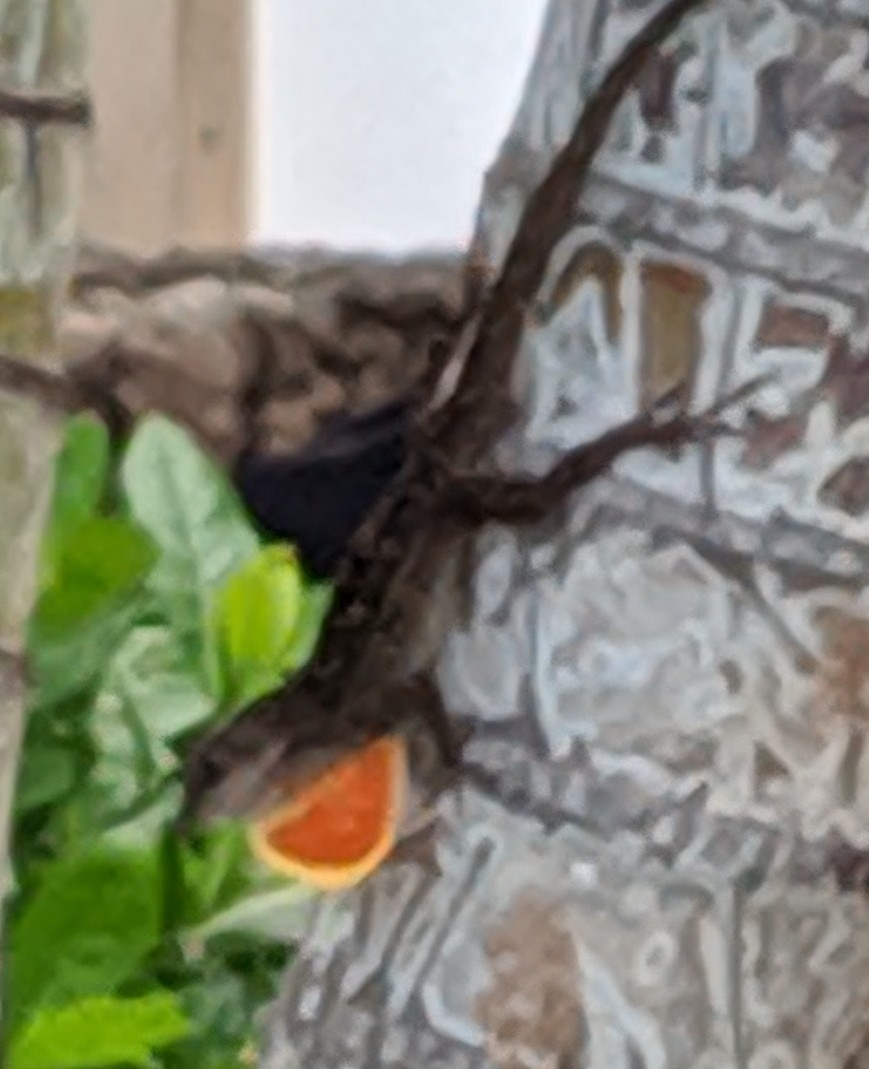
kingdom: Animalia
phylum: Chordata
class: Squamata
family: Dactyloidae
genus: Anolis
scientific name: Anolis sagrei
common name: Brown anole
